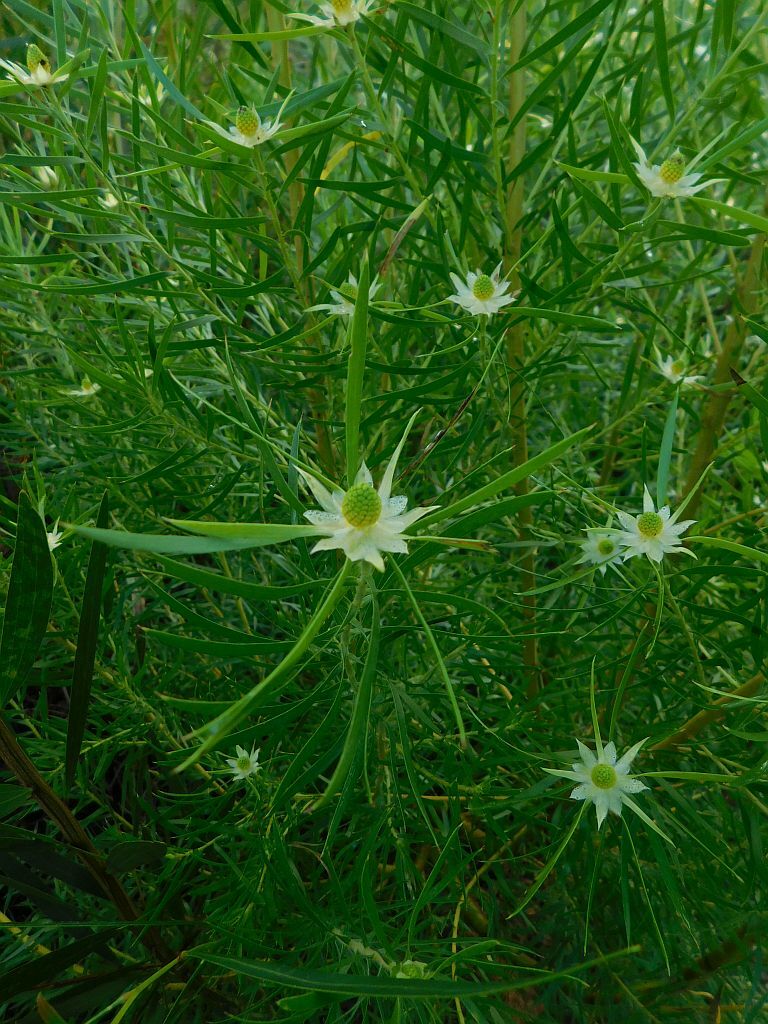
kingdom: Plantae
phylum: Tracheophyta
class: Magnoliopsida
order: Proteales
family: Proteaceae
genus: Leucadendron
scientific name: Leucadendron salicifolium
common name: Common stream conebush
